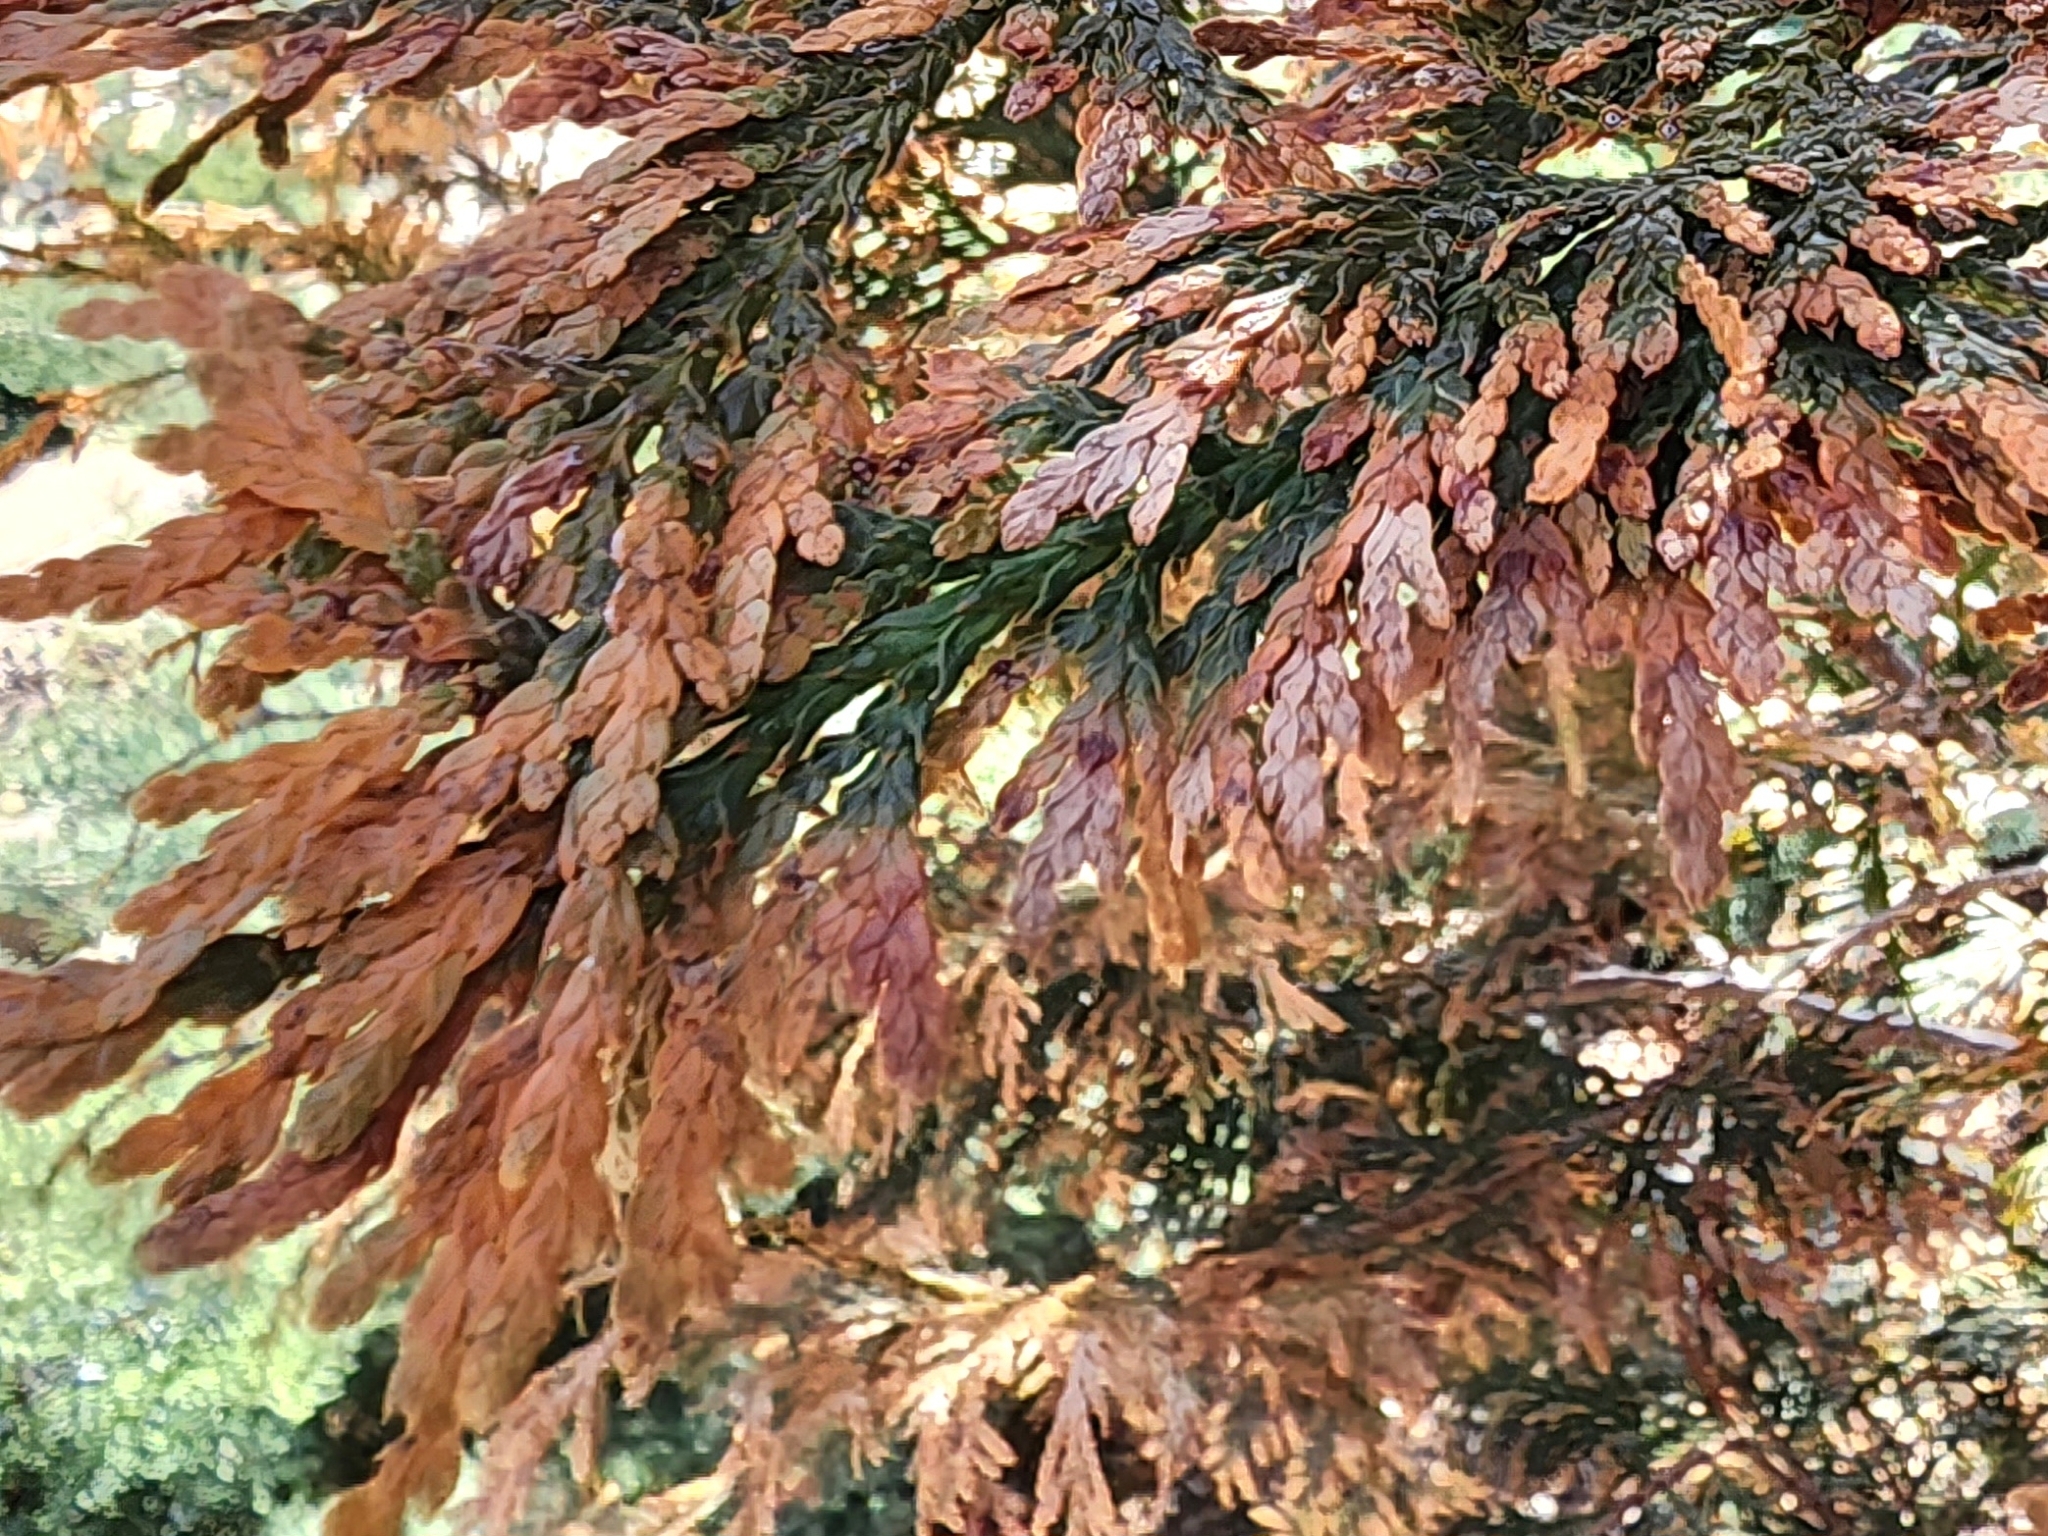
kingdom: Fungi
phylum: Ascomycota
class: Sordariomycetes
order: Amphisphaeriales
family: Pestalotiopsidaceae
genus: Pestalotiopsis
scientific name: Pestalotiopsis funerea
